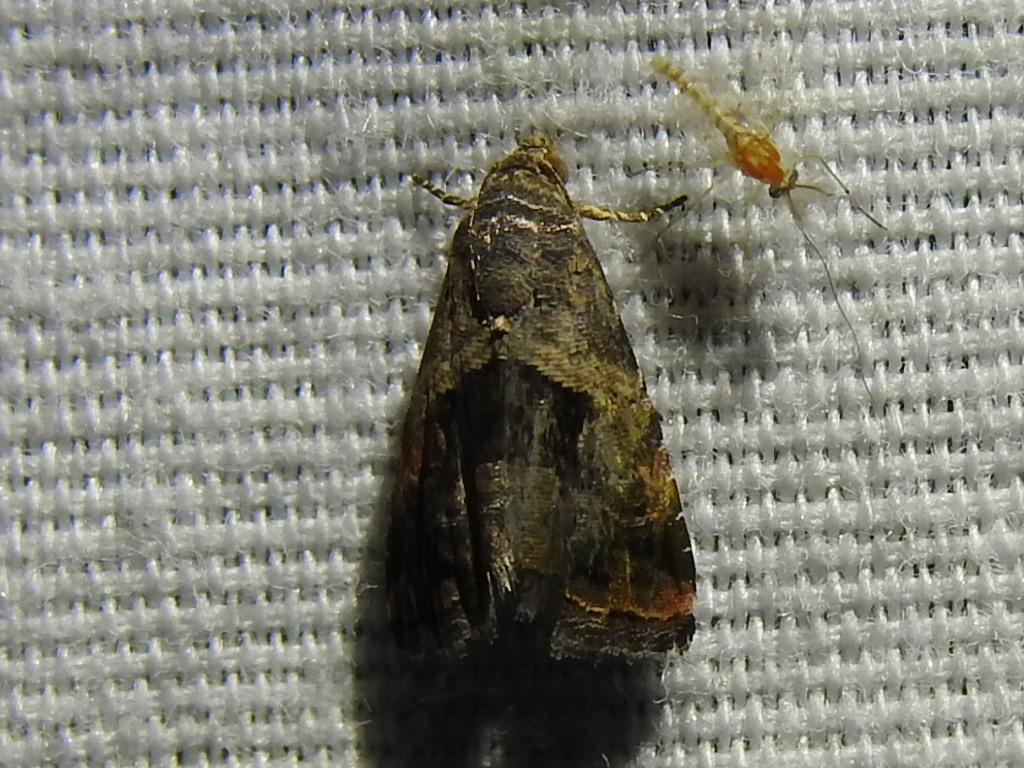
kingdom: Animalia
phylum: Arthropoda
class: Insecta
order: Lepidoptera
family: Noctuidae
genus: Tripudia
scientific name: Tripudia quadrifera
